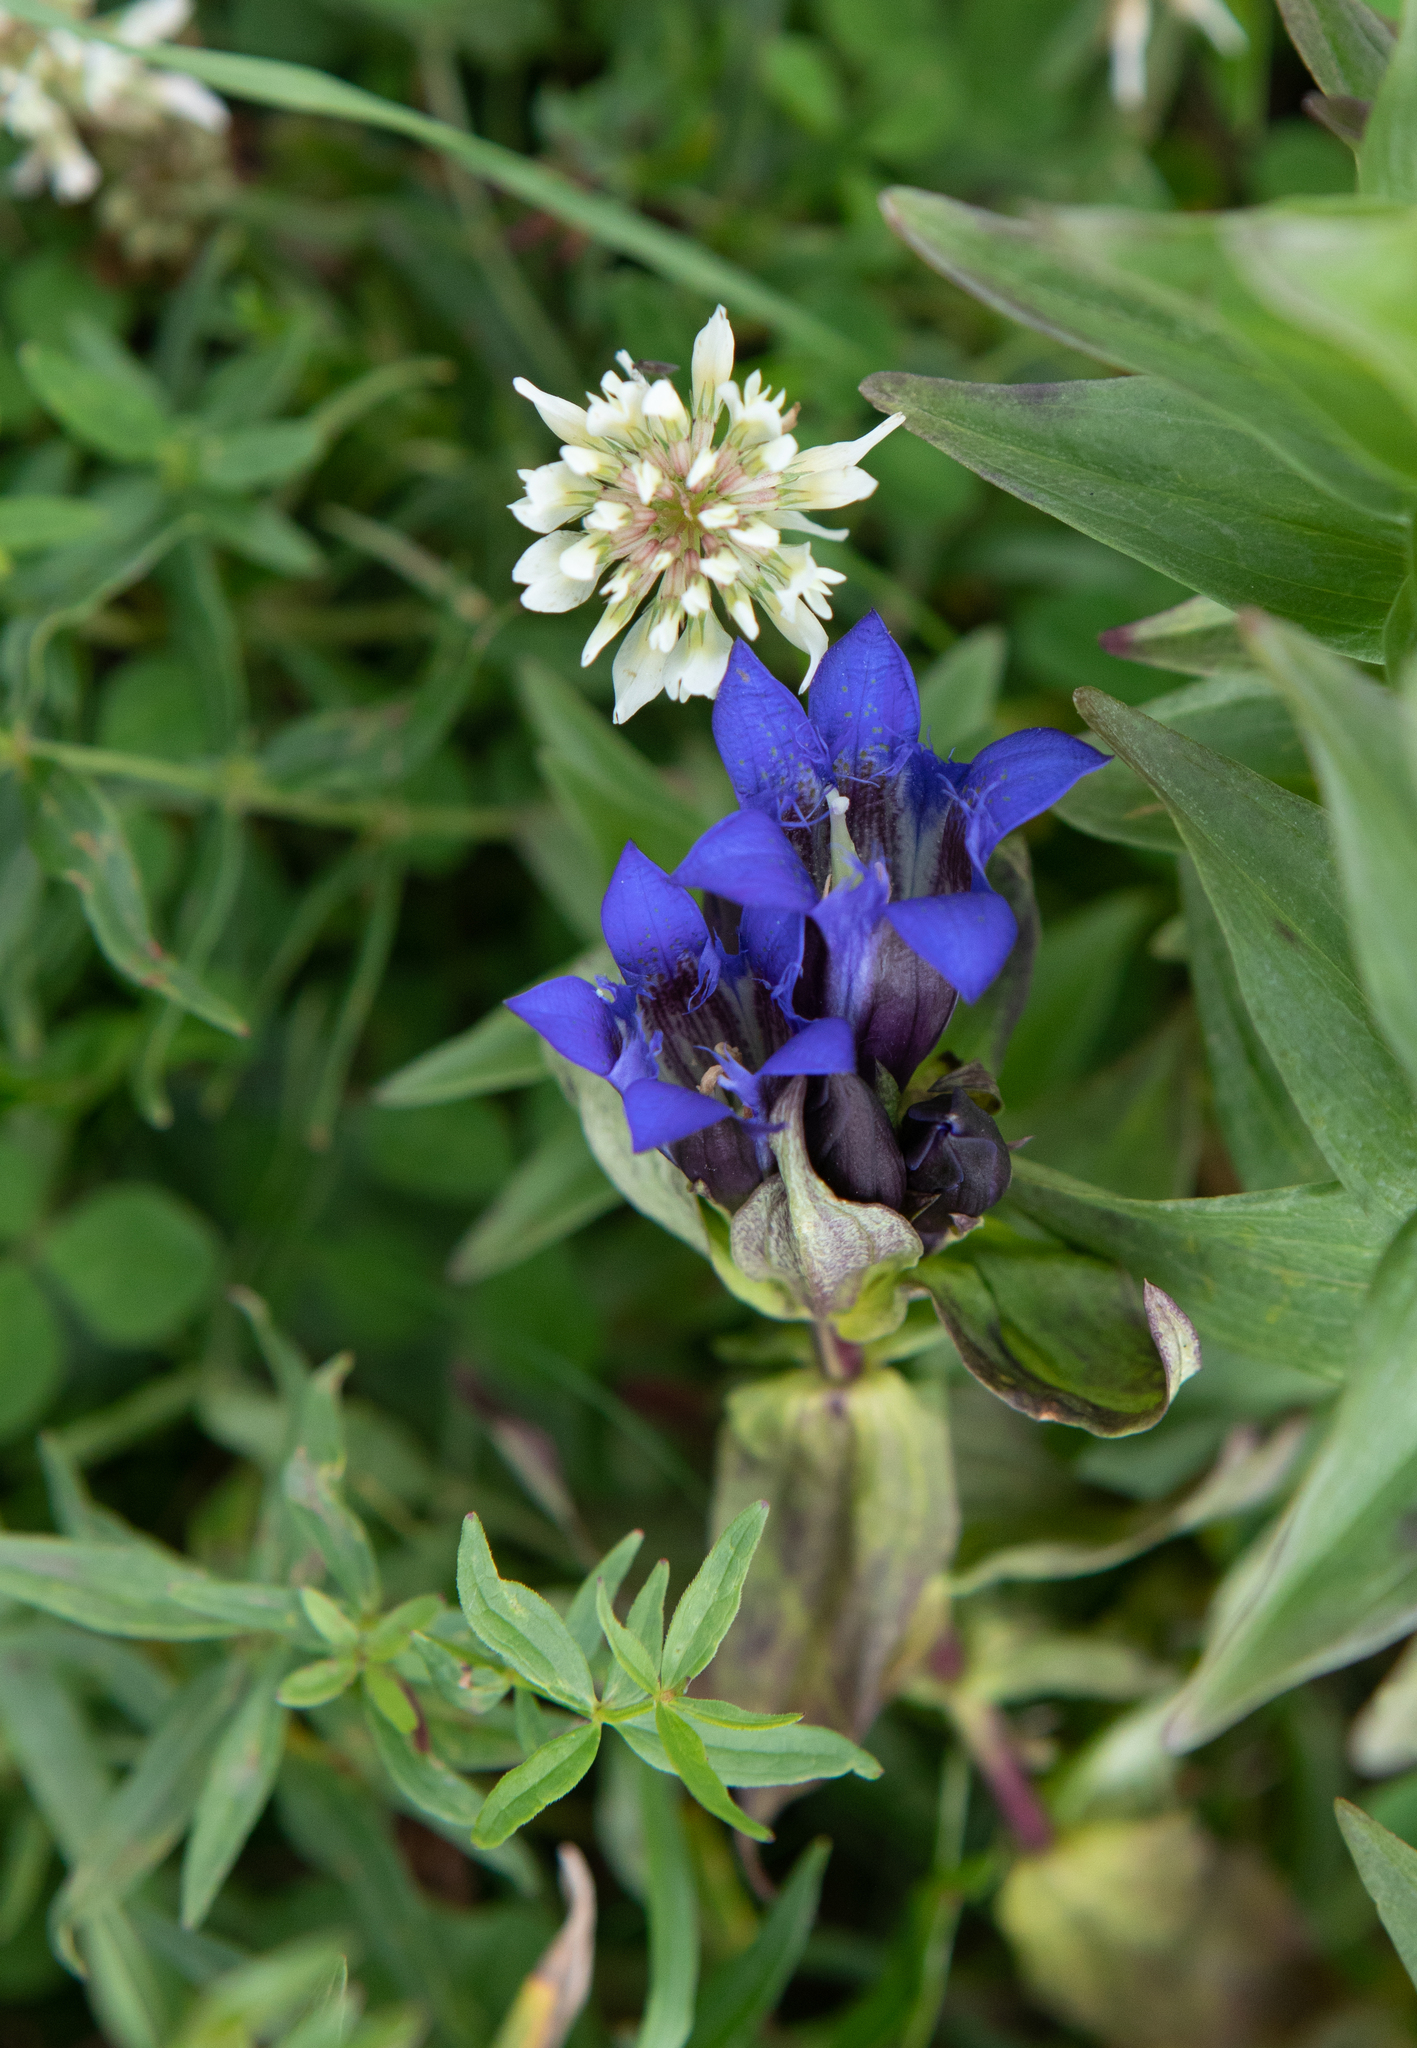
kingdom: Plantae
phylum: Tracheophyta
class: Magnoliopsida
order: Gentianales
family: Gentianaceae
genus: Gentiana
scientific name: Gentiana dschungarica
